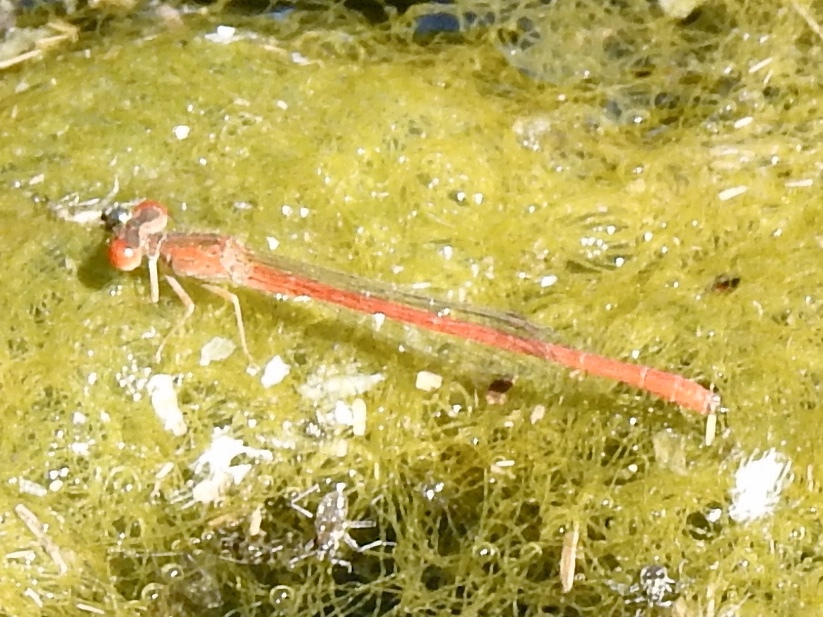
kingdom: Animalia
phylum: Arthropoda
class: Insecta
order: Odonata
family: Coenagrionidae
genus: Telebasis
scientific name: Telebasis salva
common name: Desert firetail
